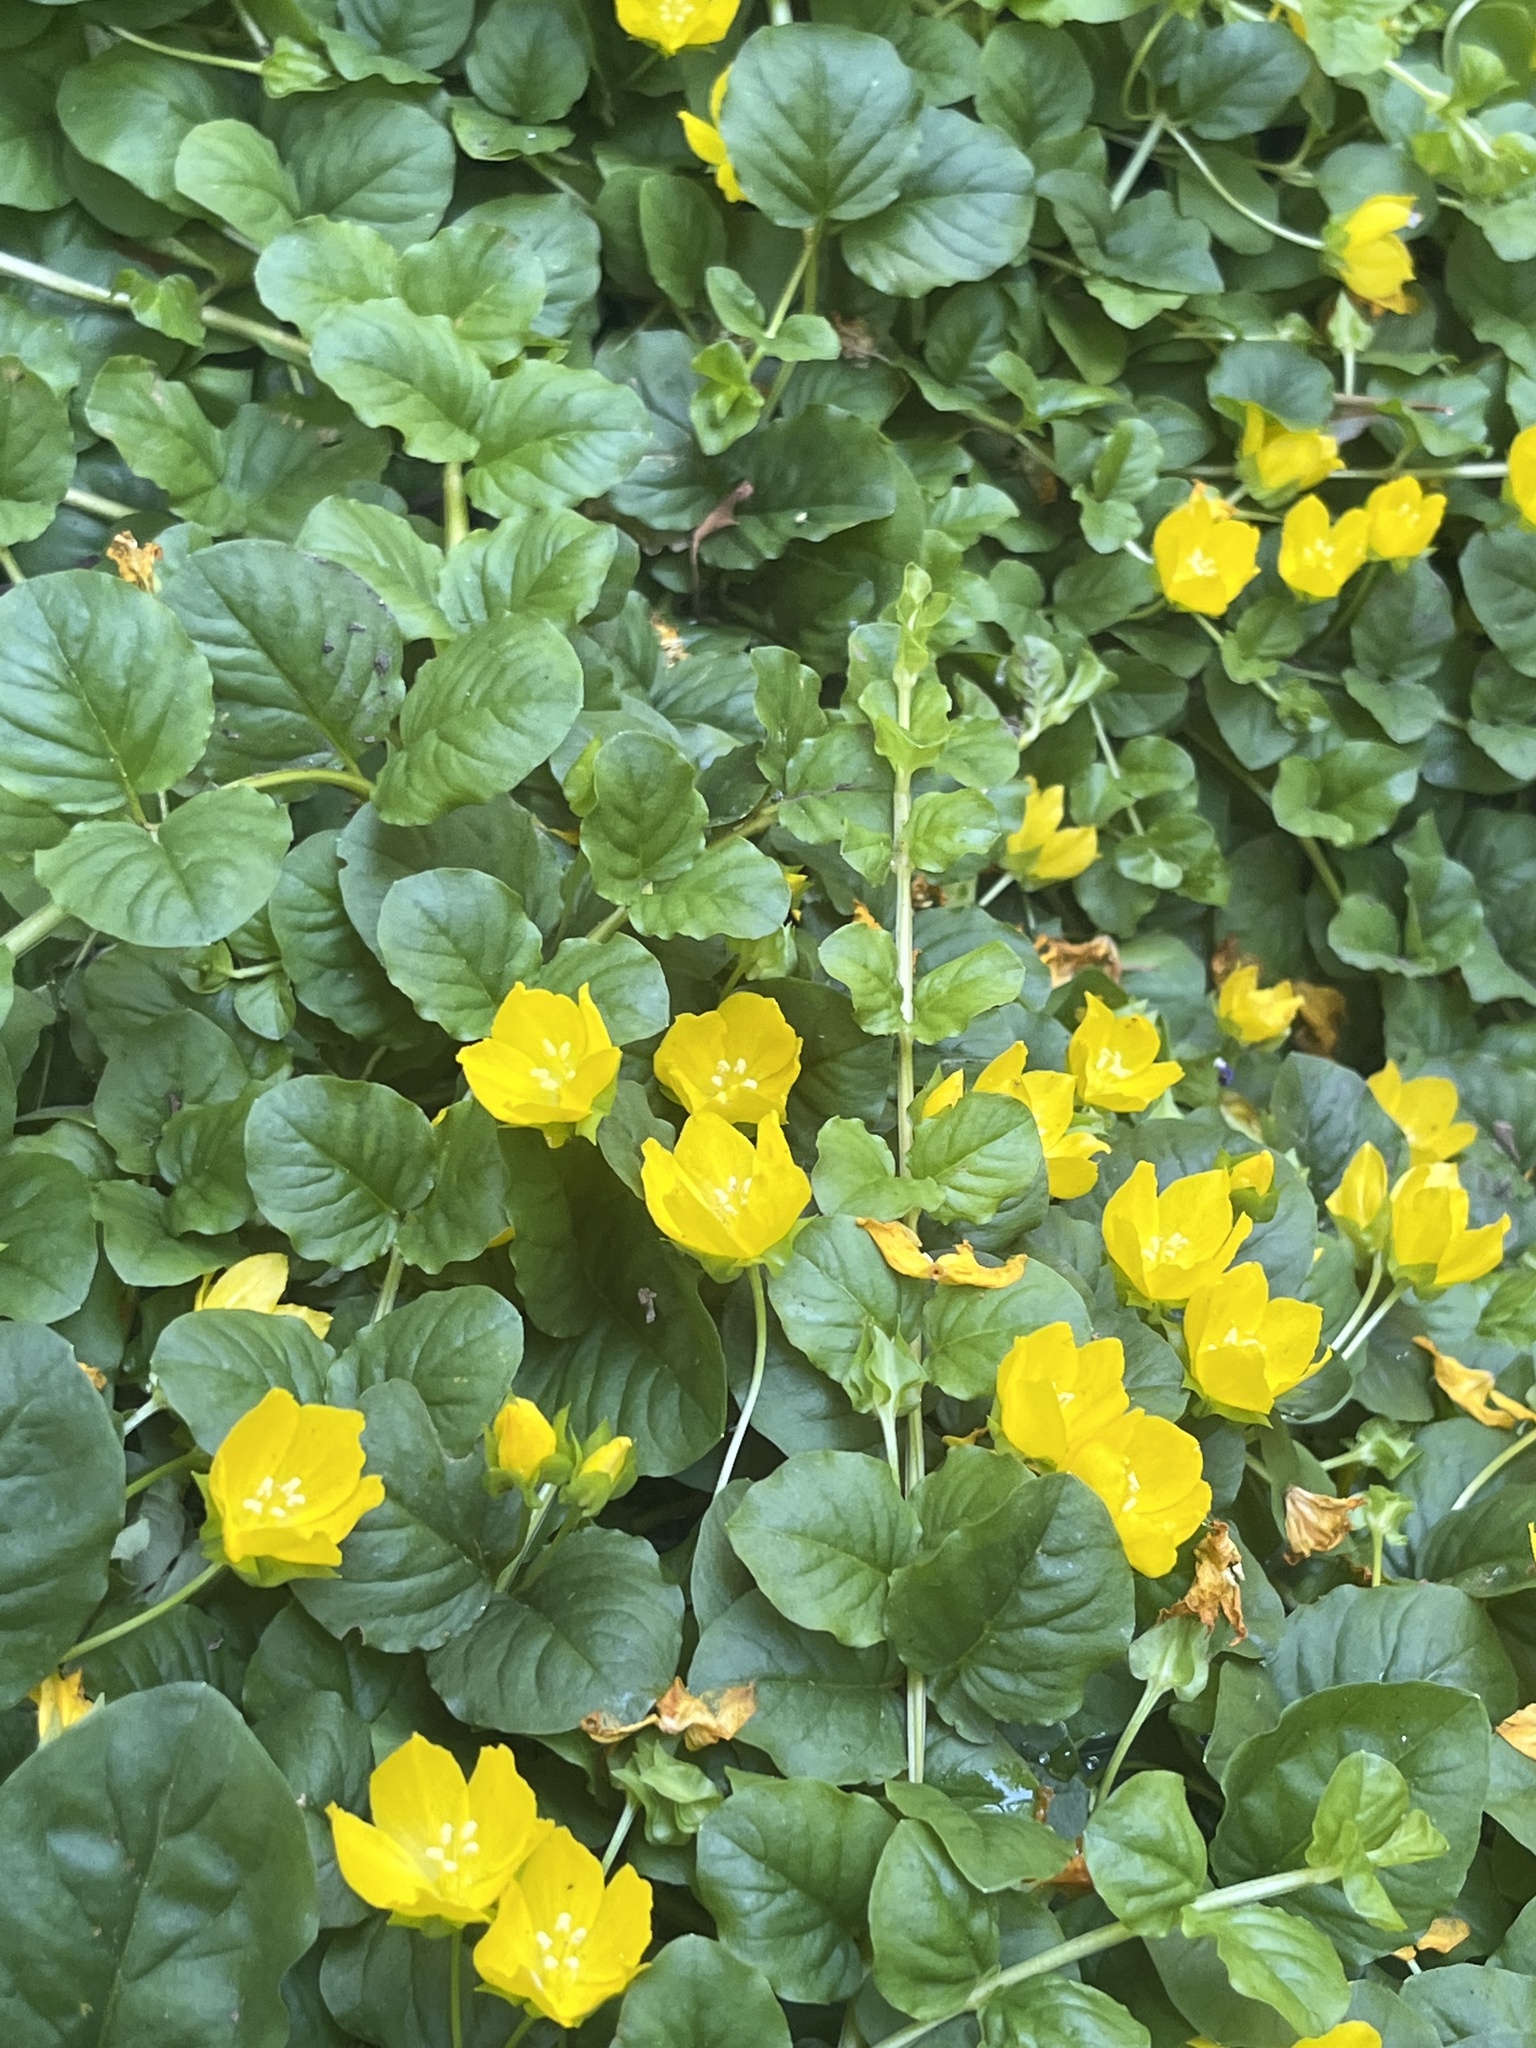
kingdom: Plantae
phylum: Tracheophyta
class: Magnoliopsida
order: Ericales
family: Primulaceae
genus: Lysimachia
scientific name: Lysimachia nummularia
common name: Moneywort
